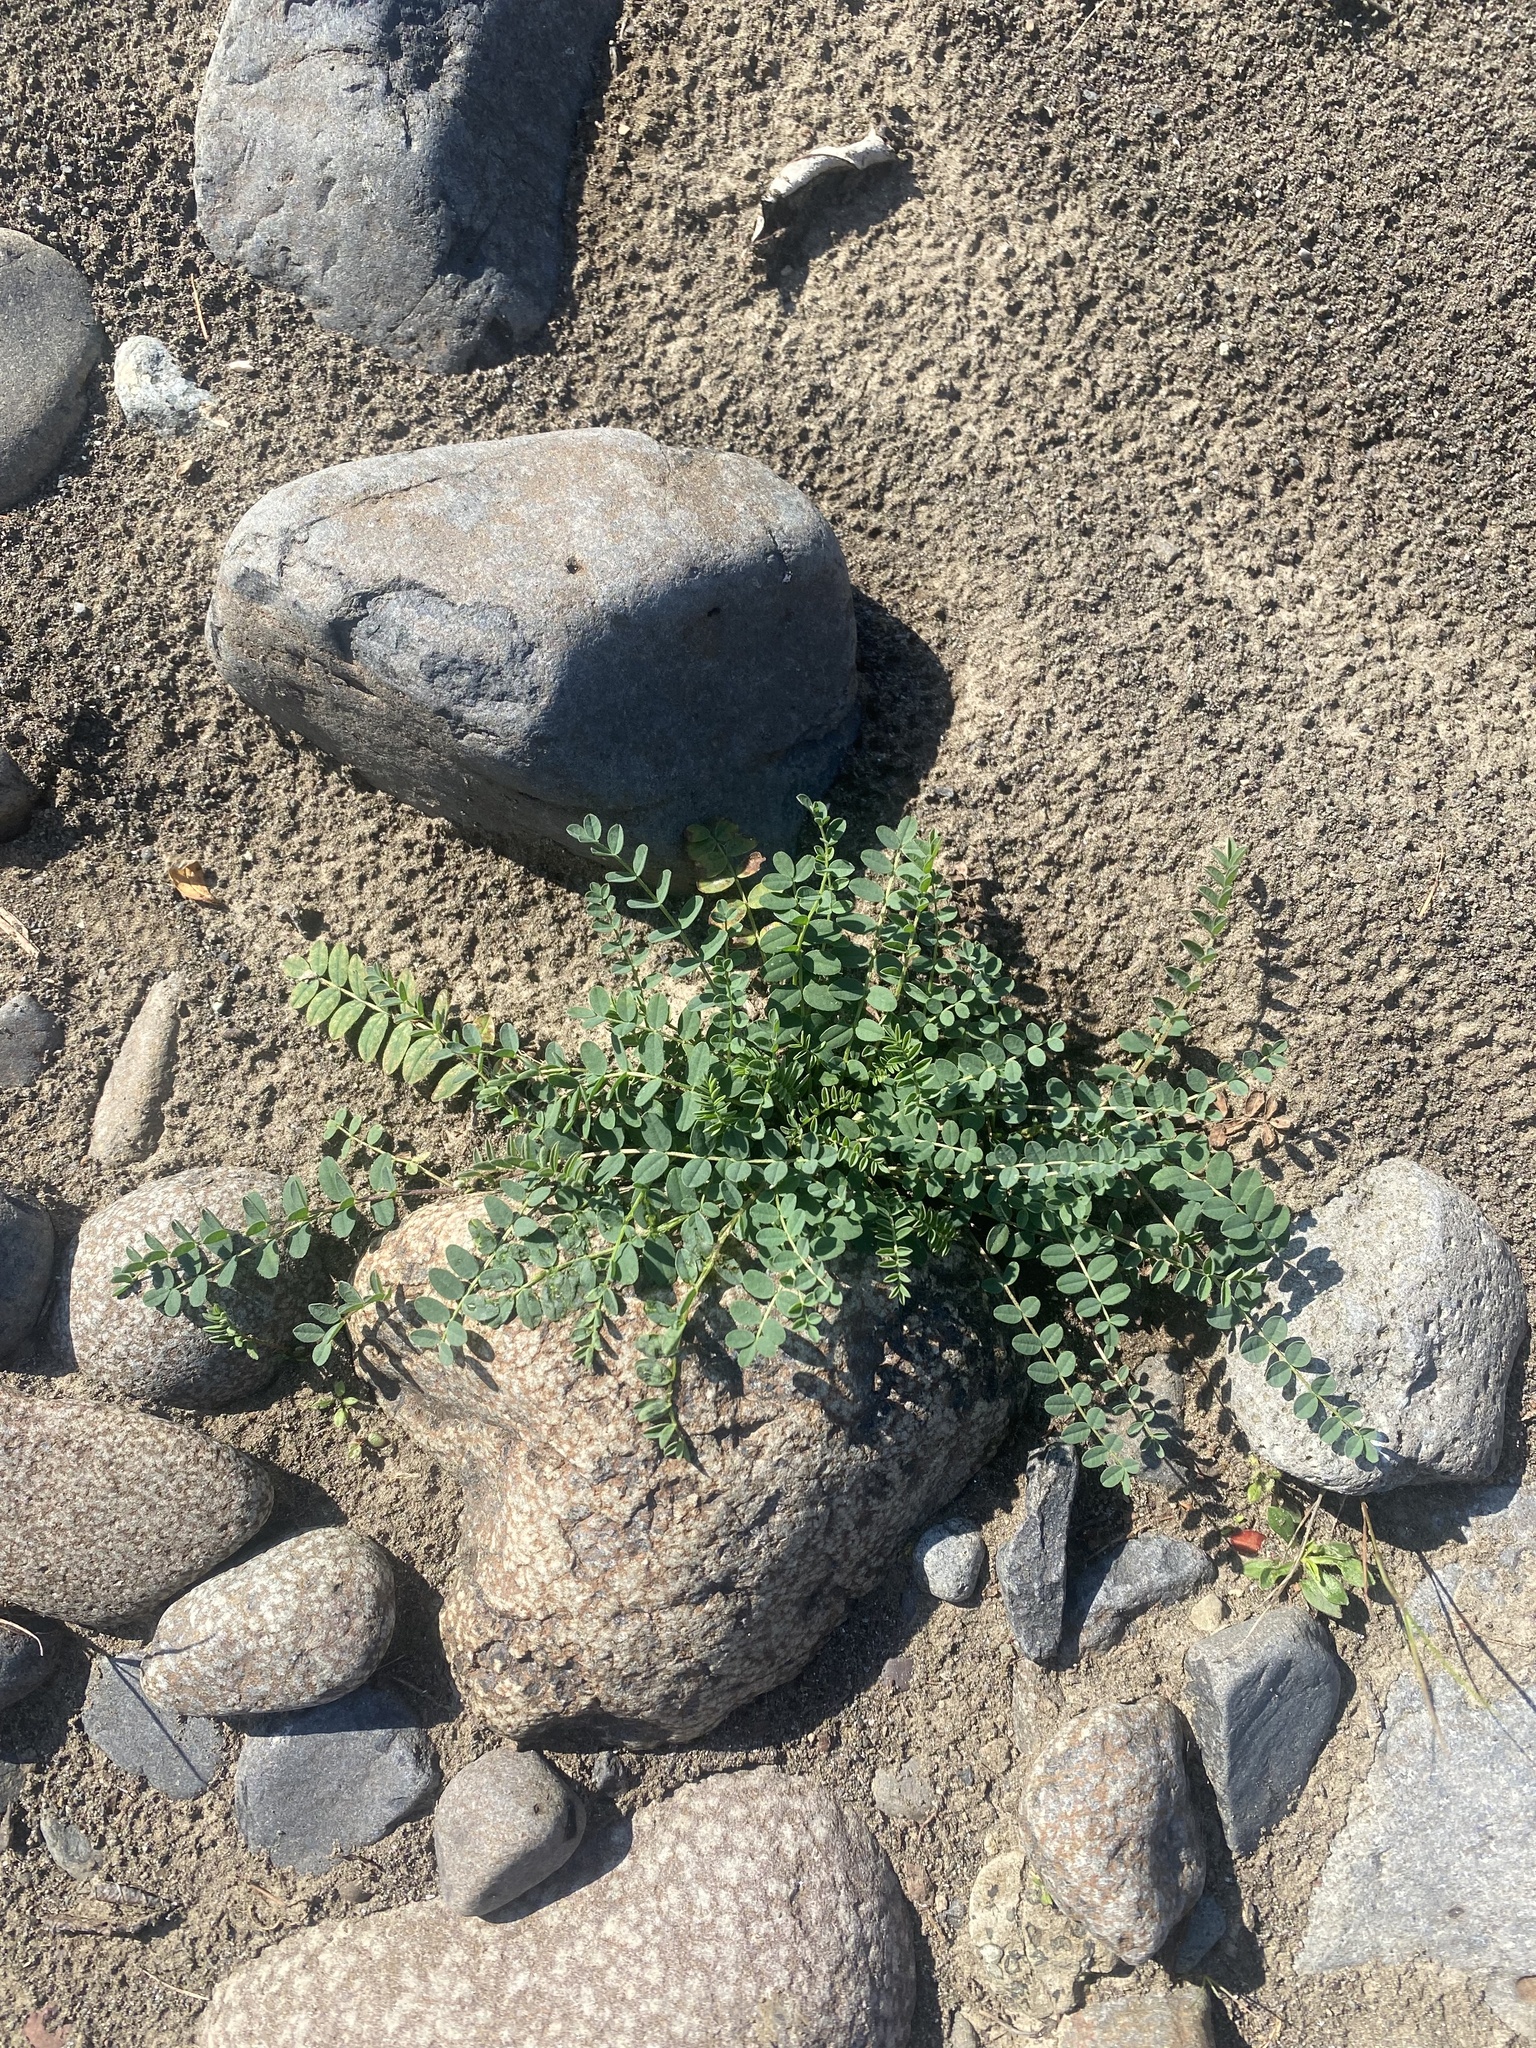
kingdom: Plantae
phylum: Tracheophyta
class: Magnoliopsida
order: Fabales
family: Fabaceae
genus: Astragalus
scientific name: Astragalus alpinus
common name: Alpine milk-vetch
